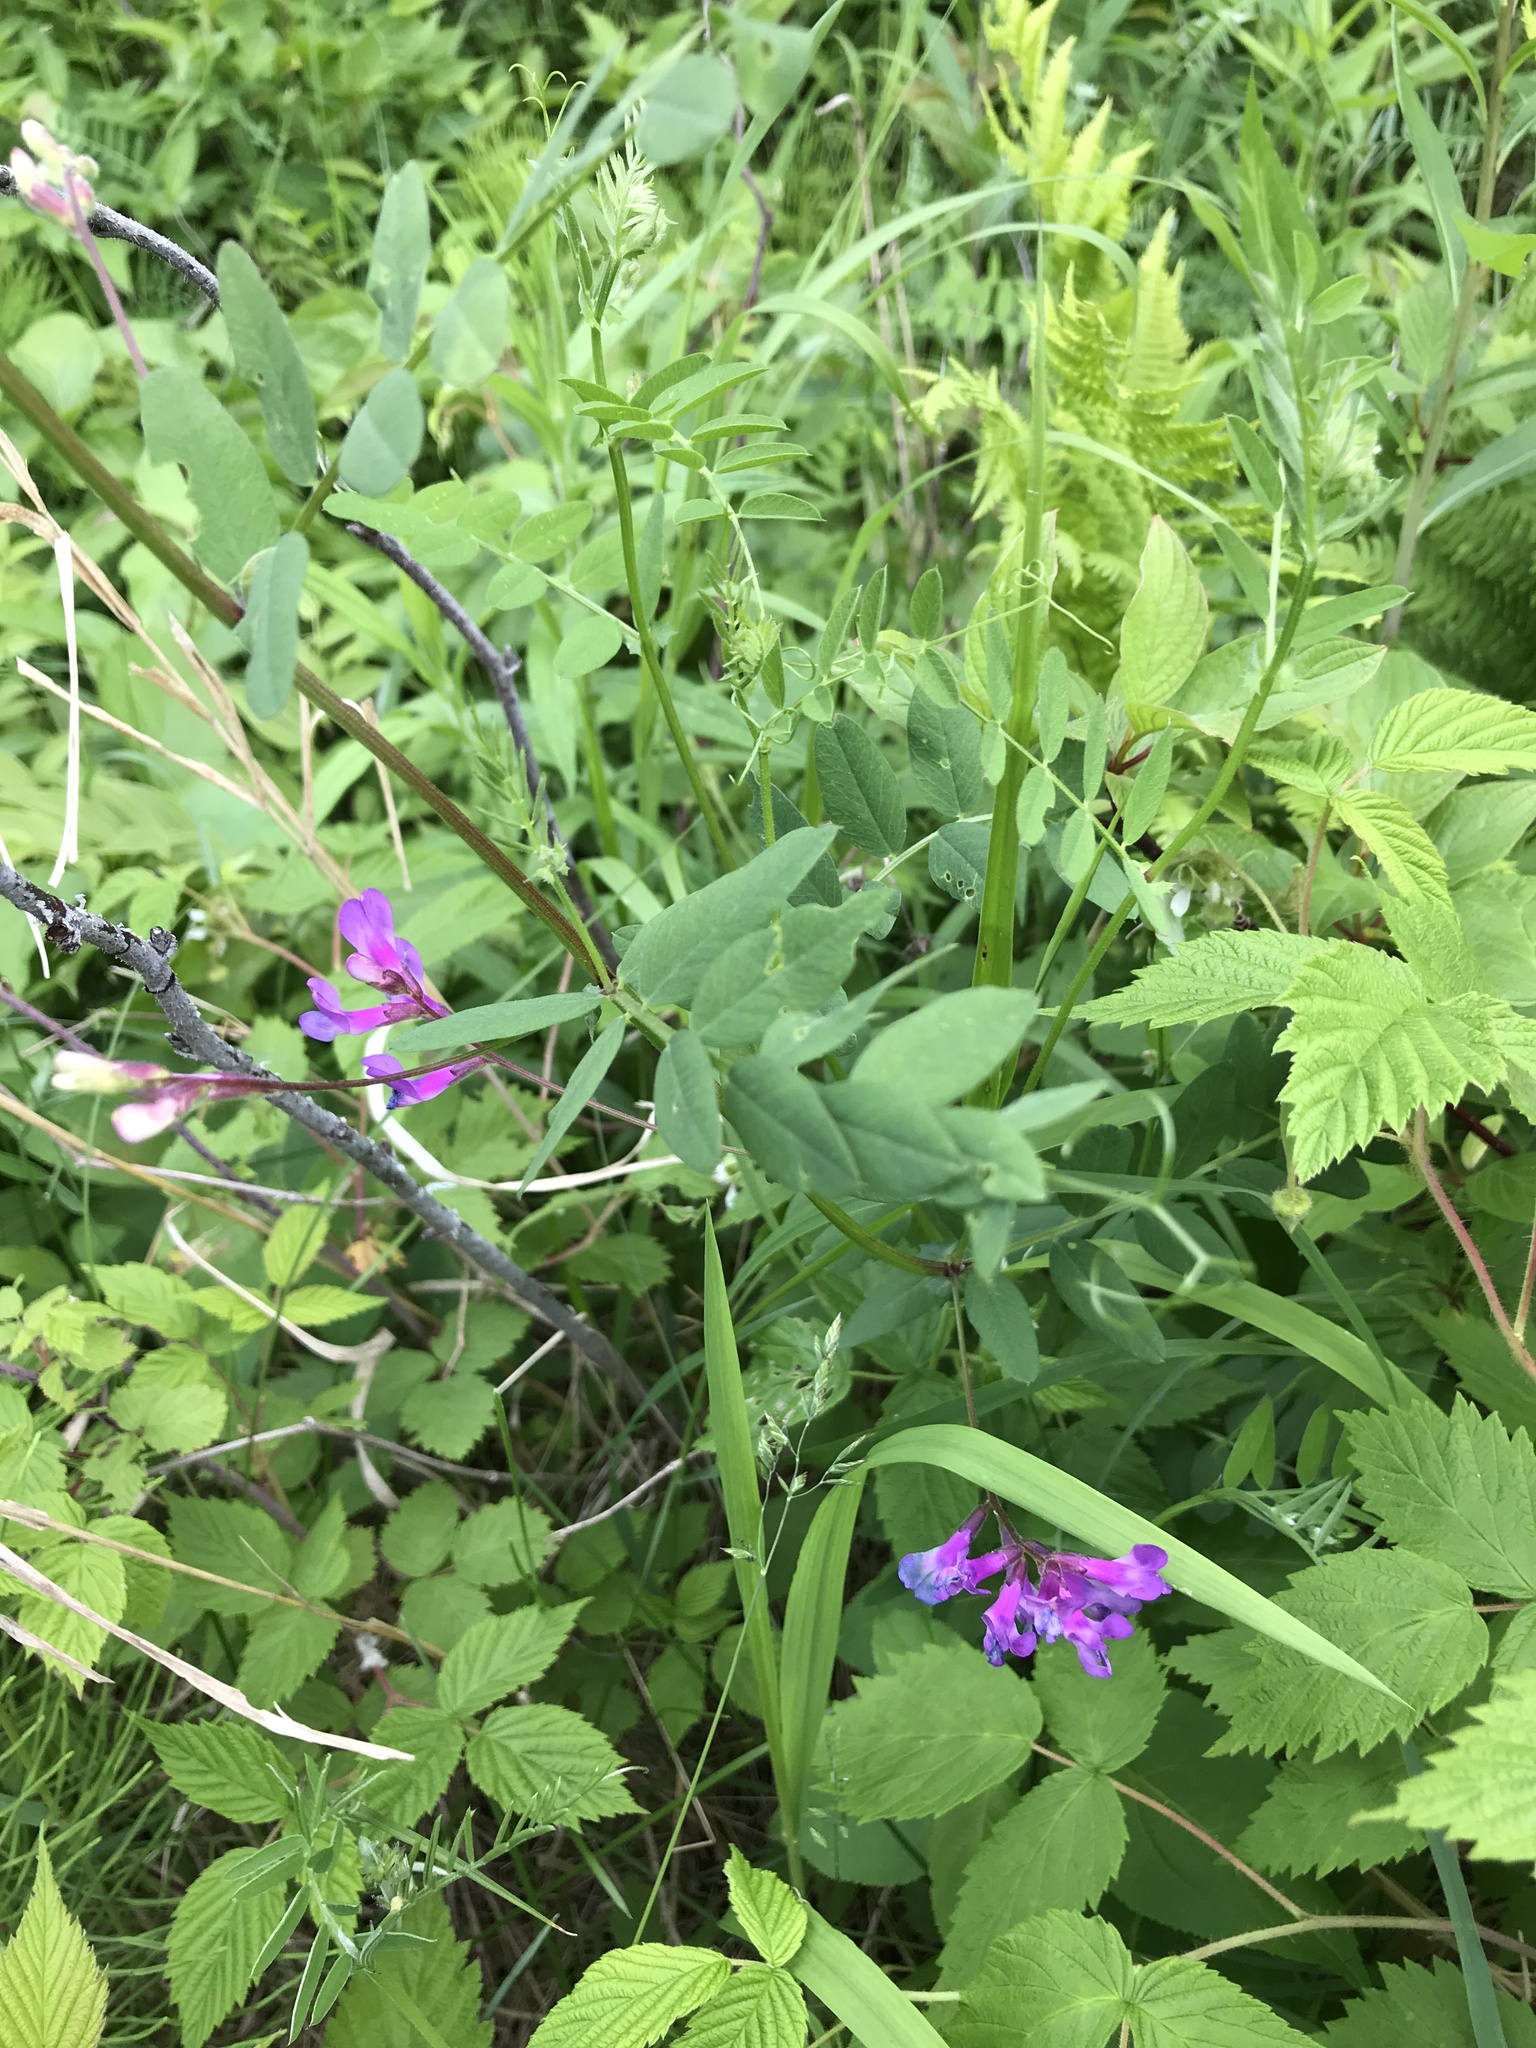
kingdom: Plantae
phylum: Tracheophyta
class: Magnoliopsida
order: Fabales
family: Fabaceae
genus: Vicia
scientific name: Vicia americana
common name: American vetch
